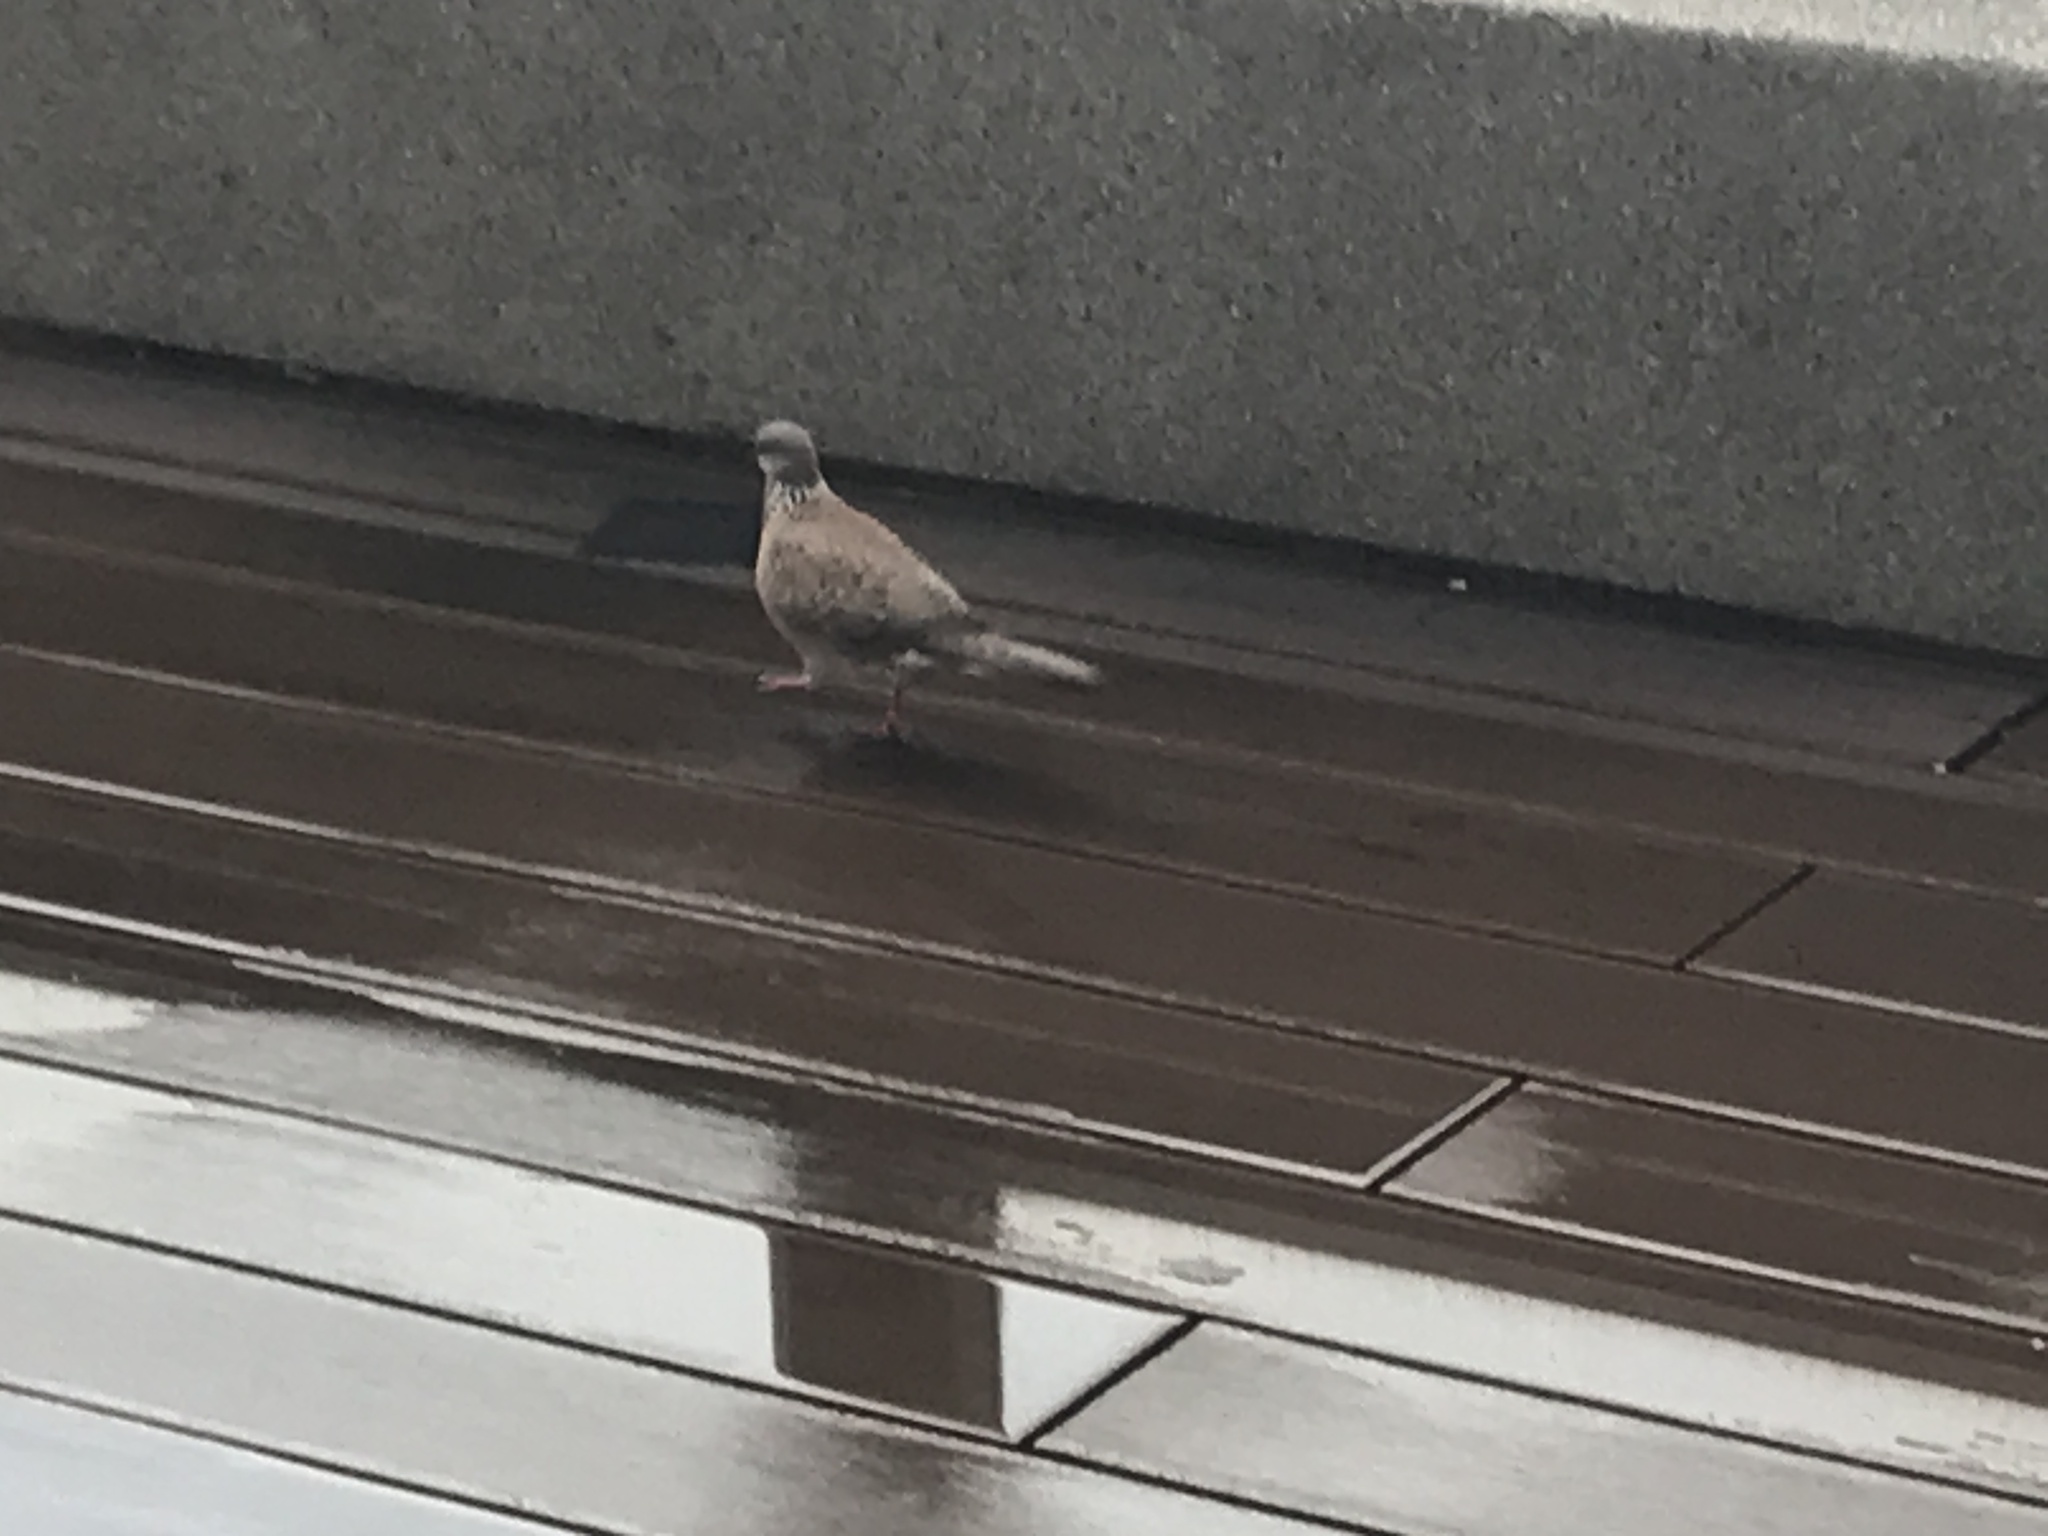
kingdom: Animalia
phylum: Chordata
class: Aves
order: Columbiformes
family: Columbidae
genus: Spilopelia
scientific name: Spilopelia chinensis
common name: Spotted dove
